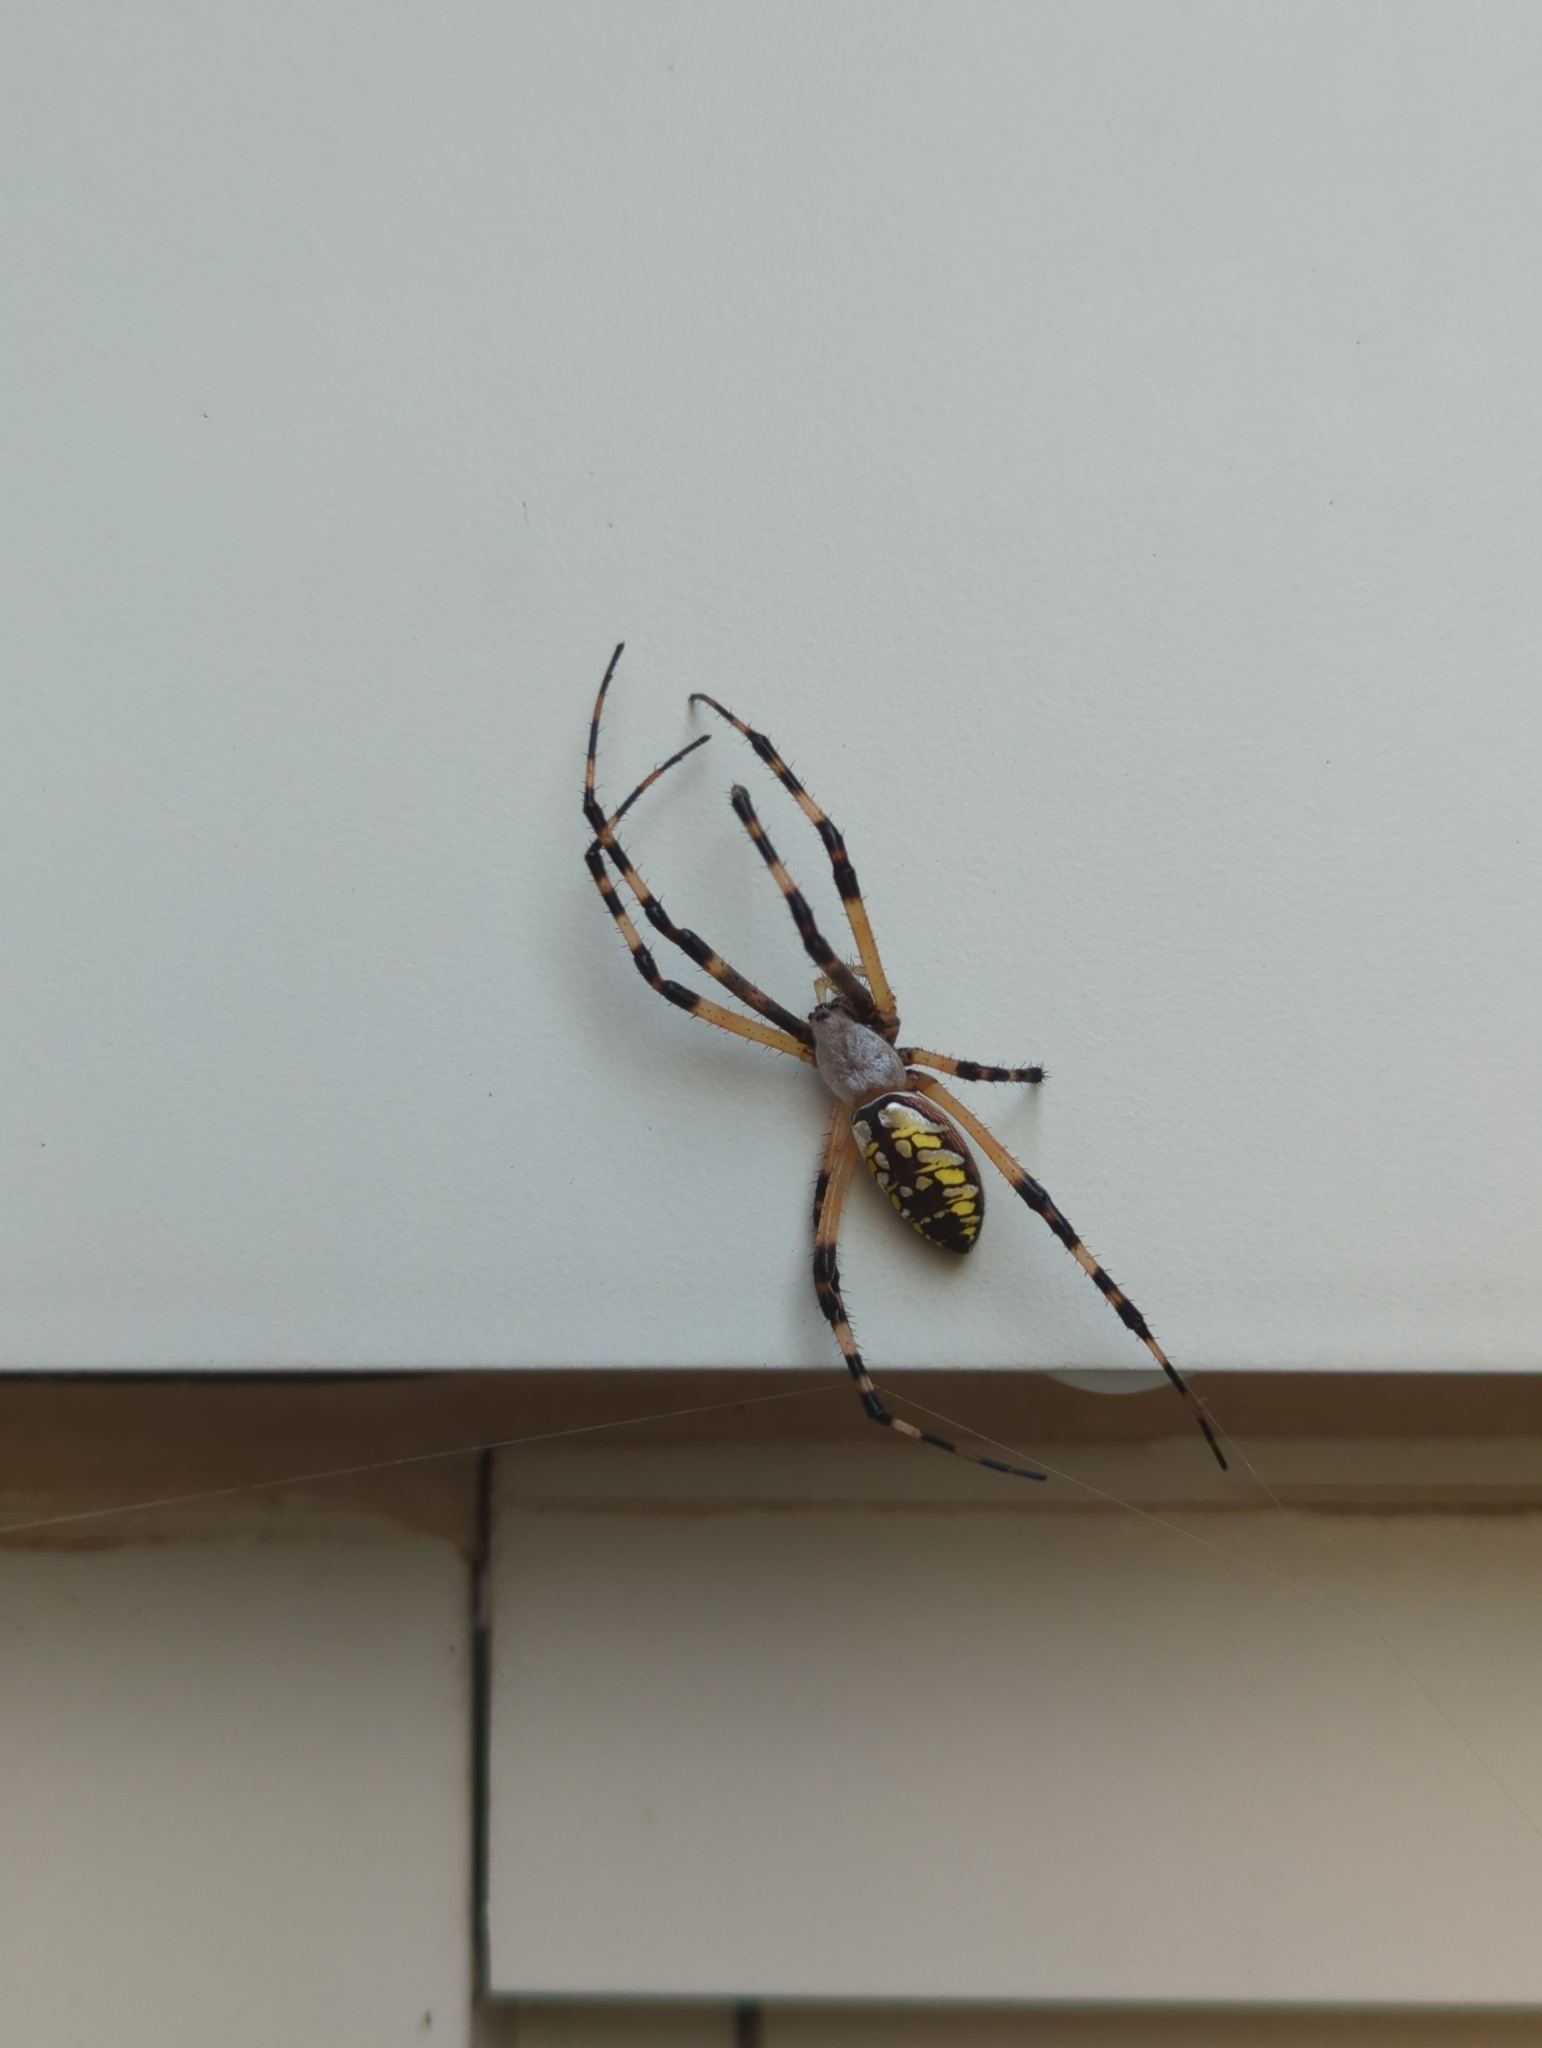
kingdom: Animalia
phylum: Arthropoda
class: Arachnida
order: Araneae
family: Araneidae
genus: Argiope
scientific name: Argiope aurantia
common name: Orb weavers
